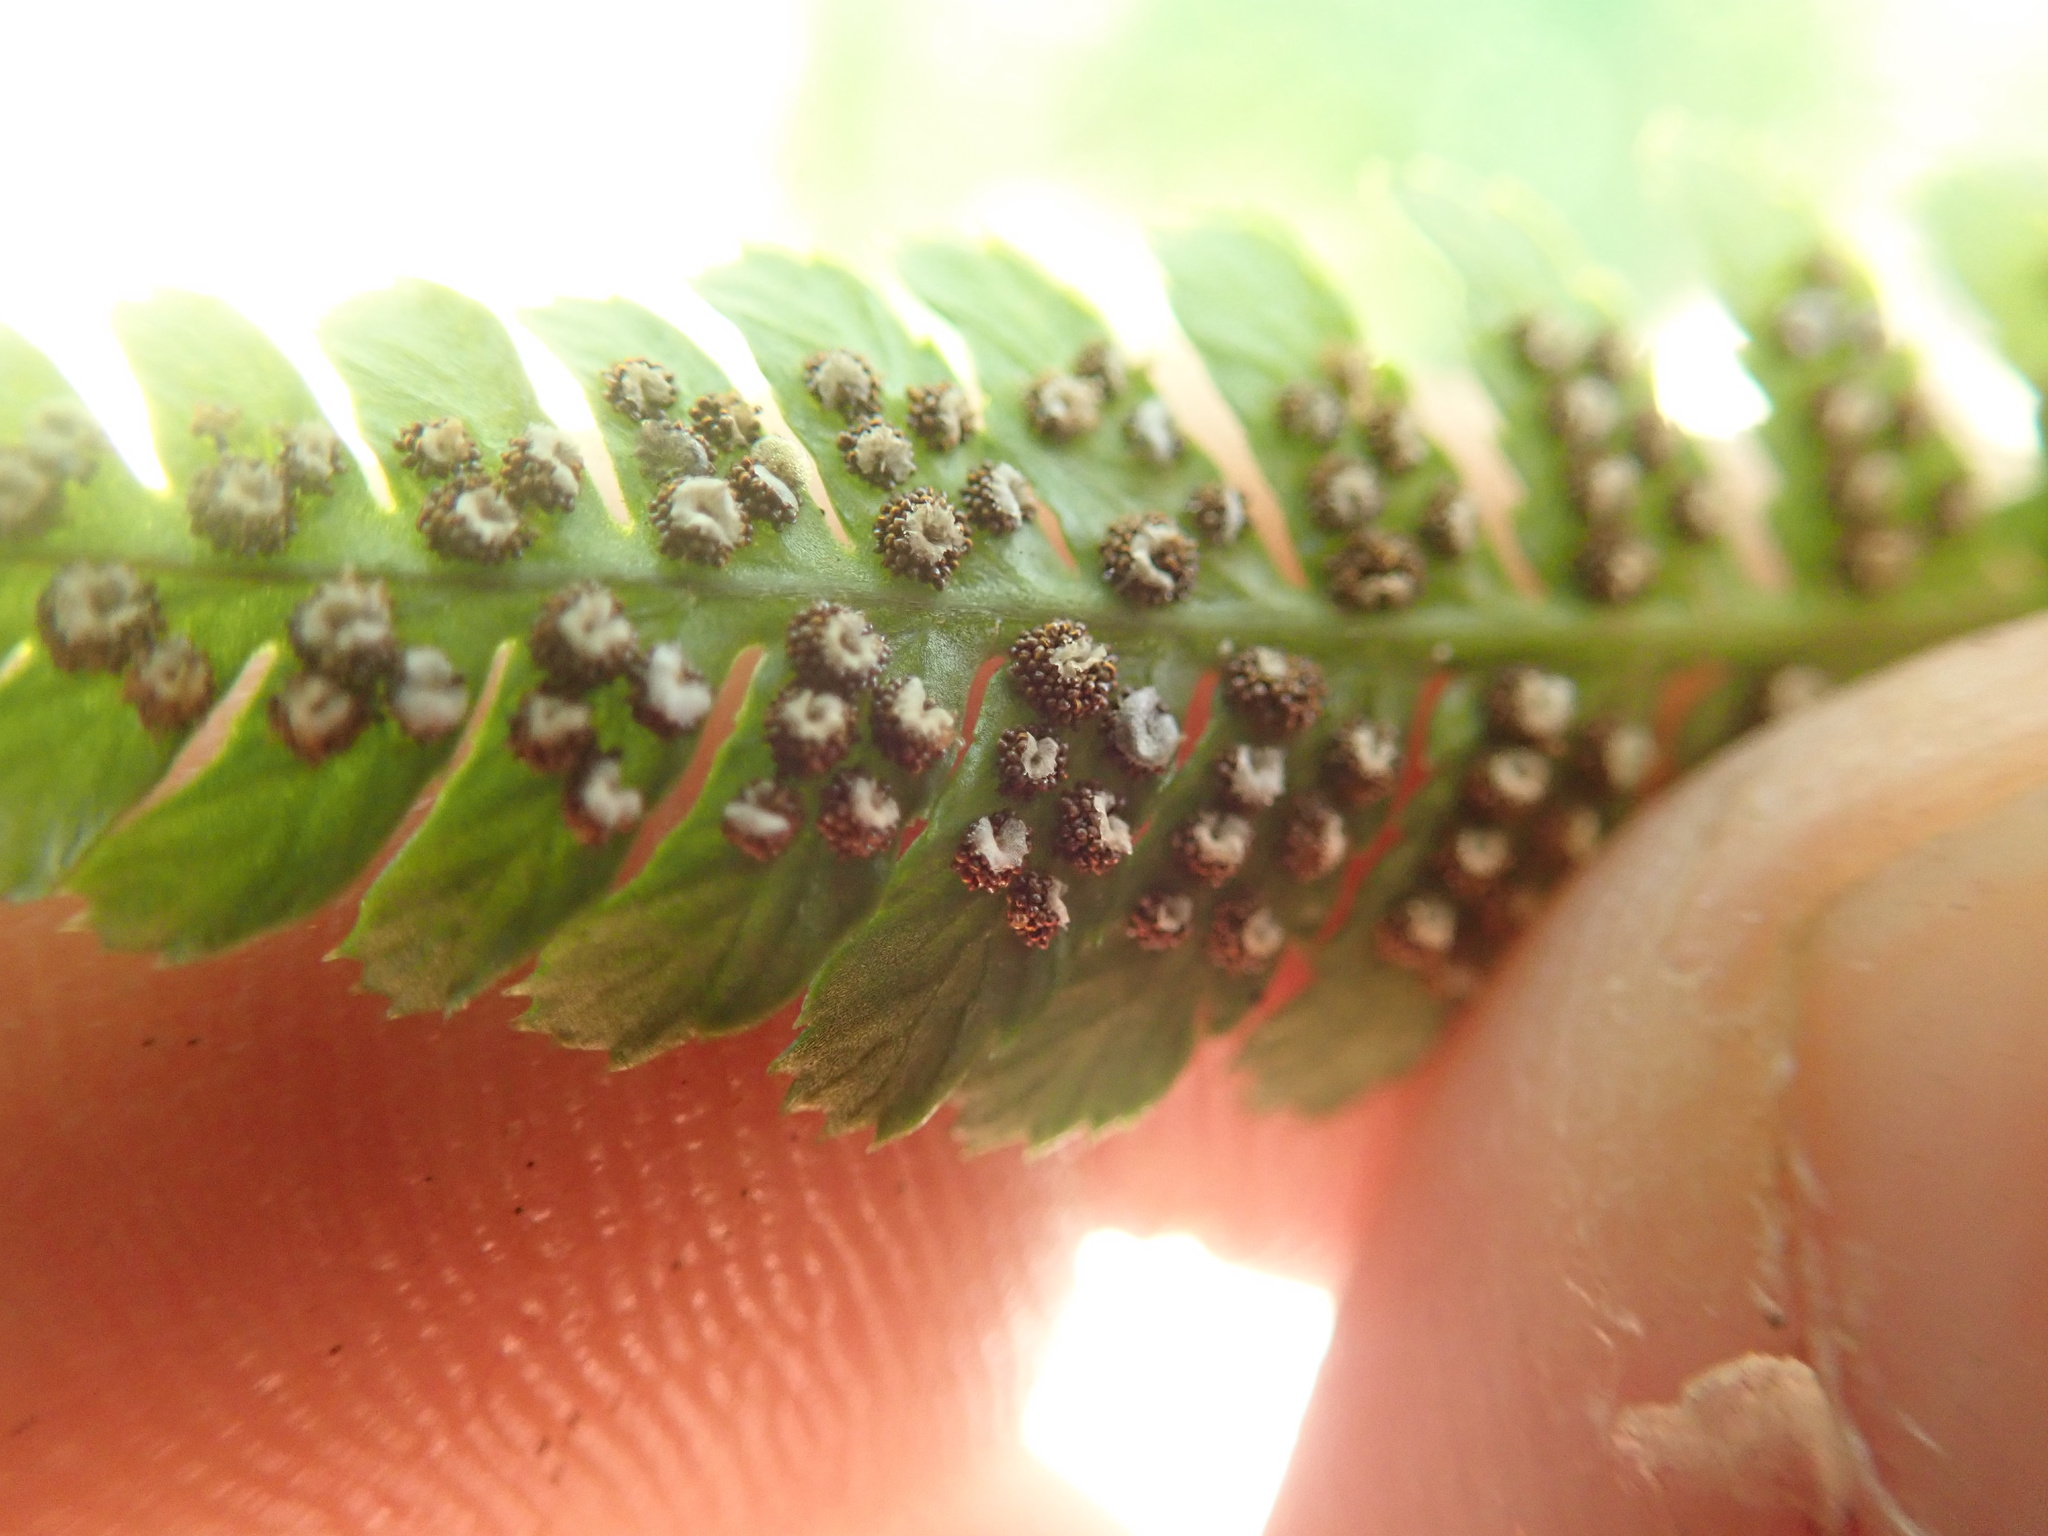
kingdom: Plantae
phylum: Tracheophyta
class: Polypodiopsida
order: Polypodiales
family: Dryopteridaceae
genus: Dryopteris
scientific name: Dryopteris arguta
